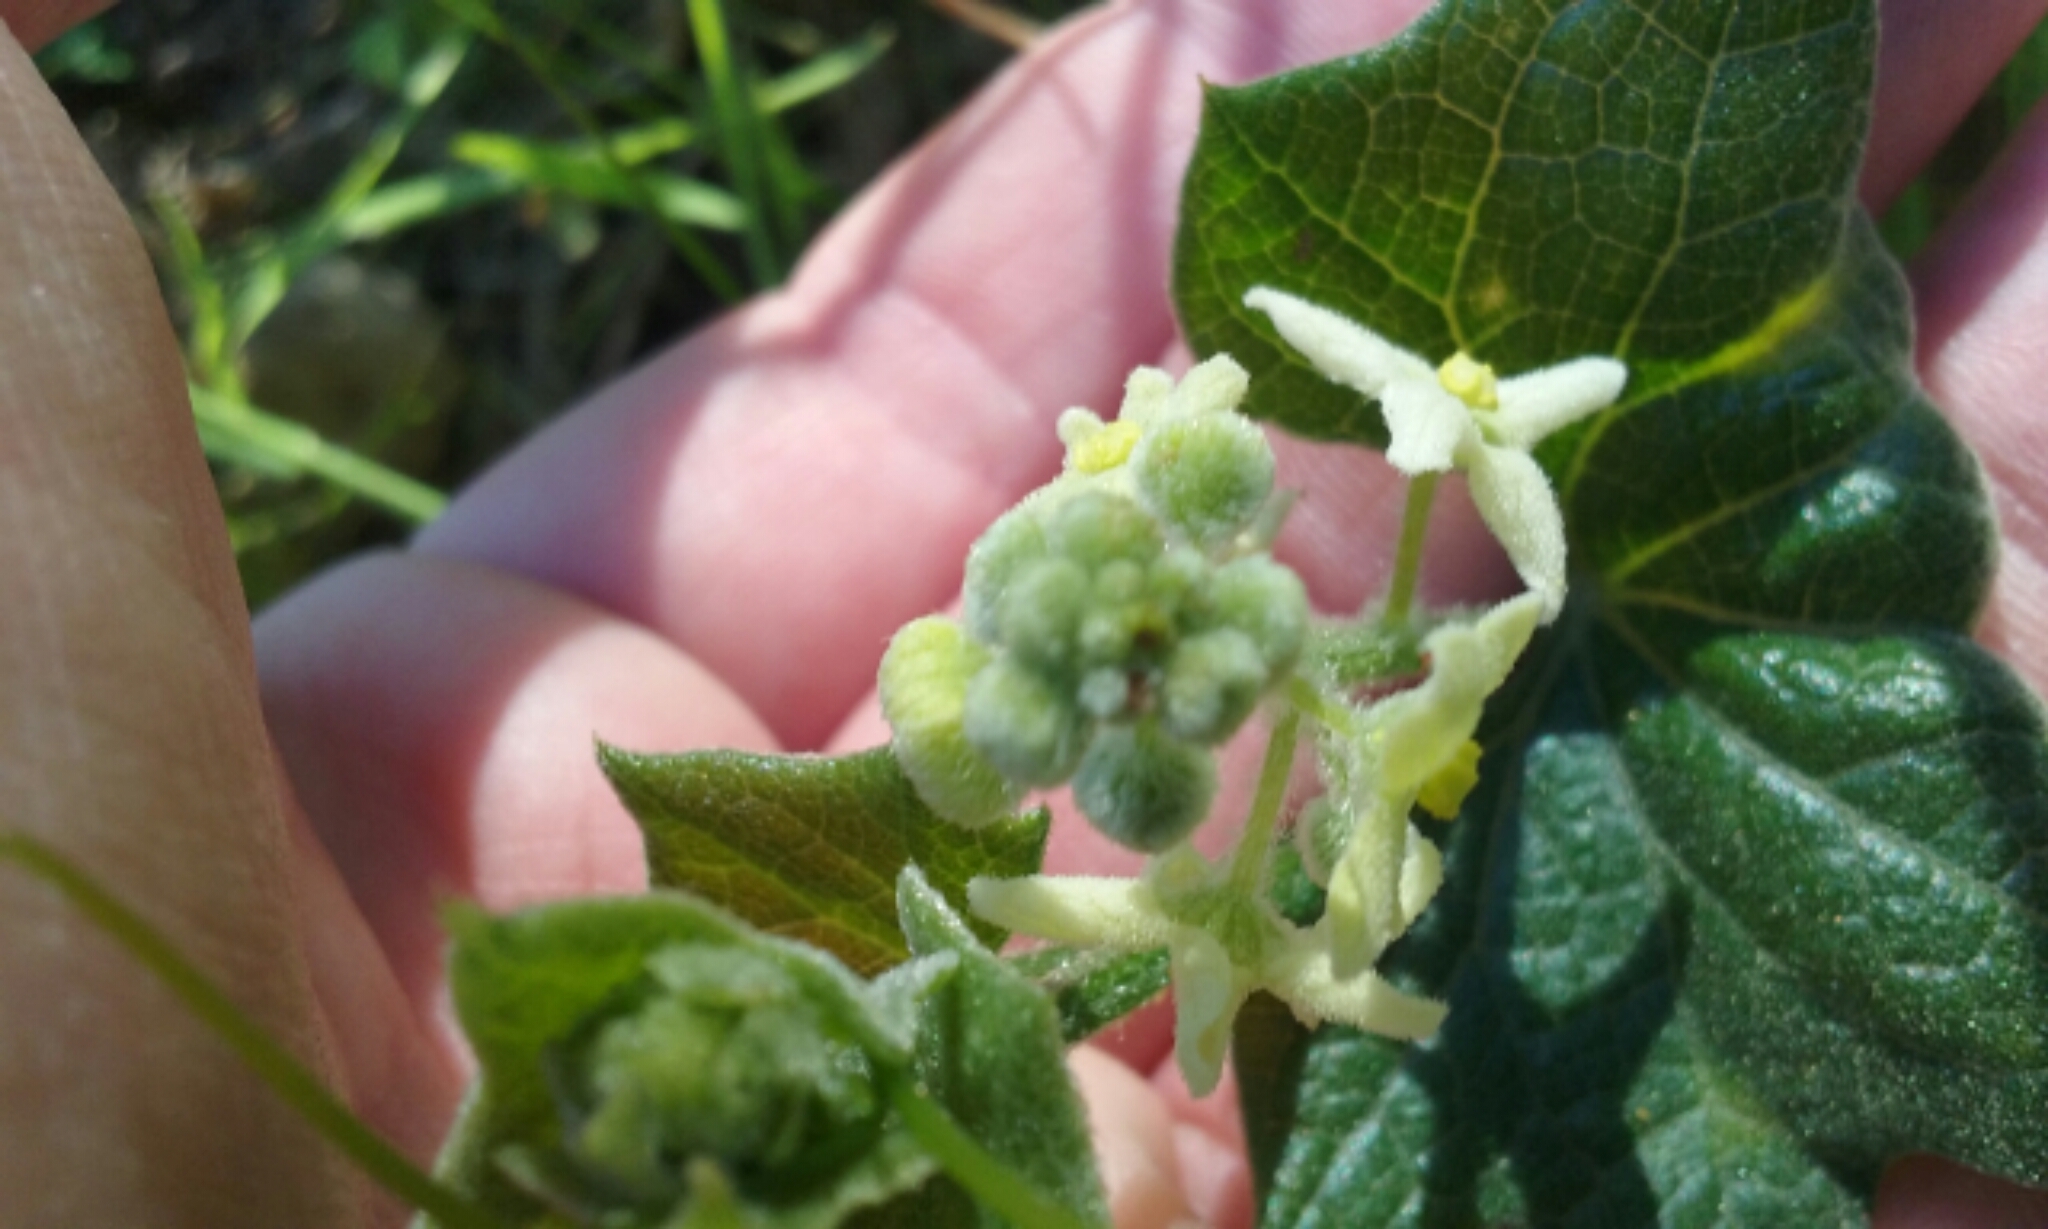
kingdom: Plantae
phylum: Tracheophyta
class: Magnoliopsida
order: Cucurbitales
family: Cucurbitaceae
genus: Marah
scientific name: Marah fabacea
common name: California manroot
